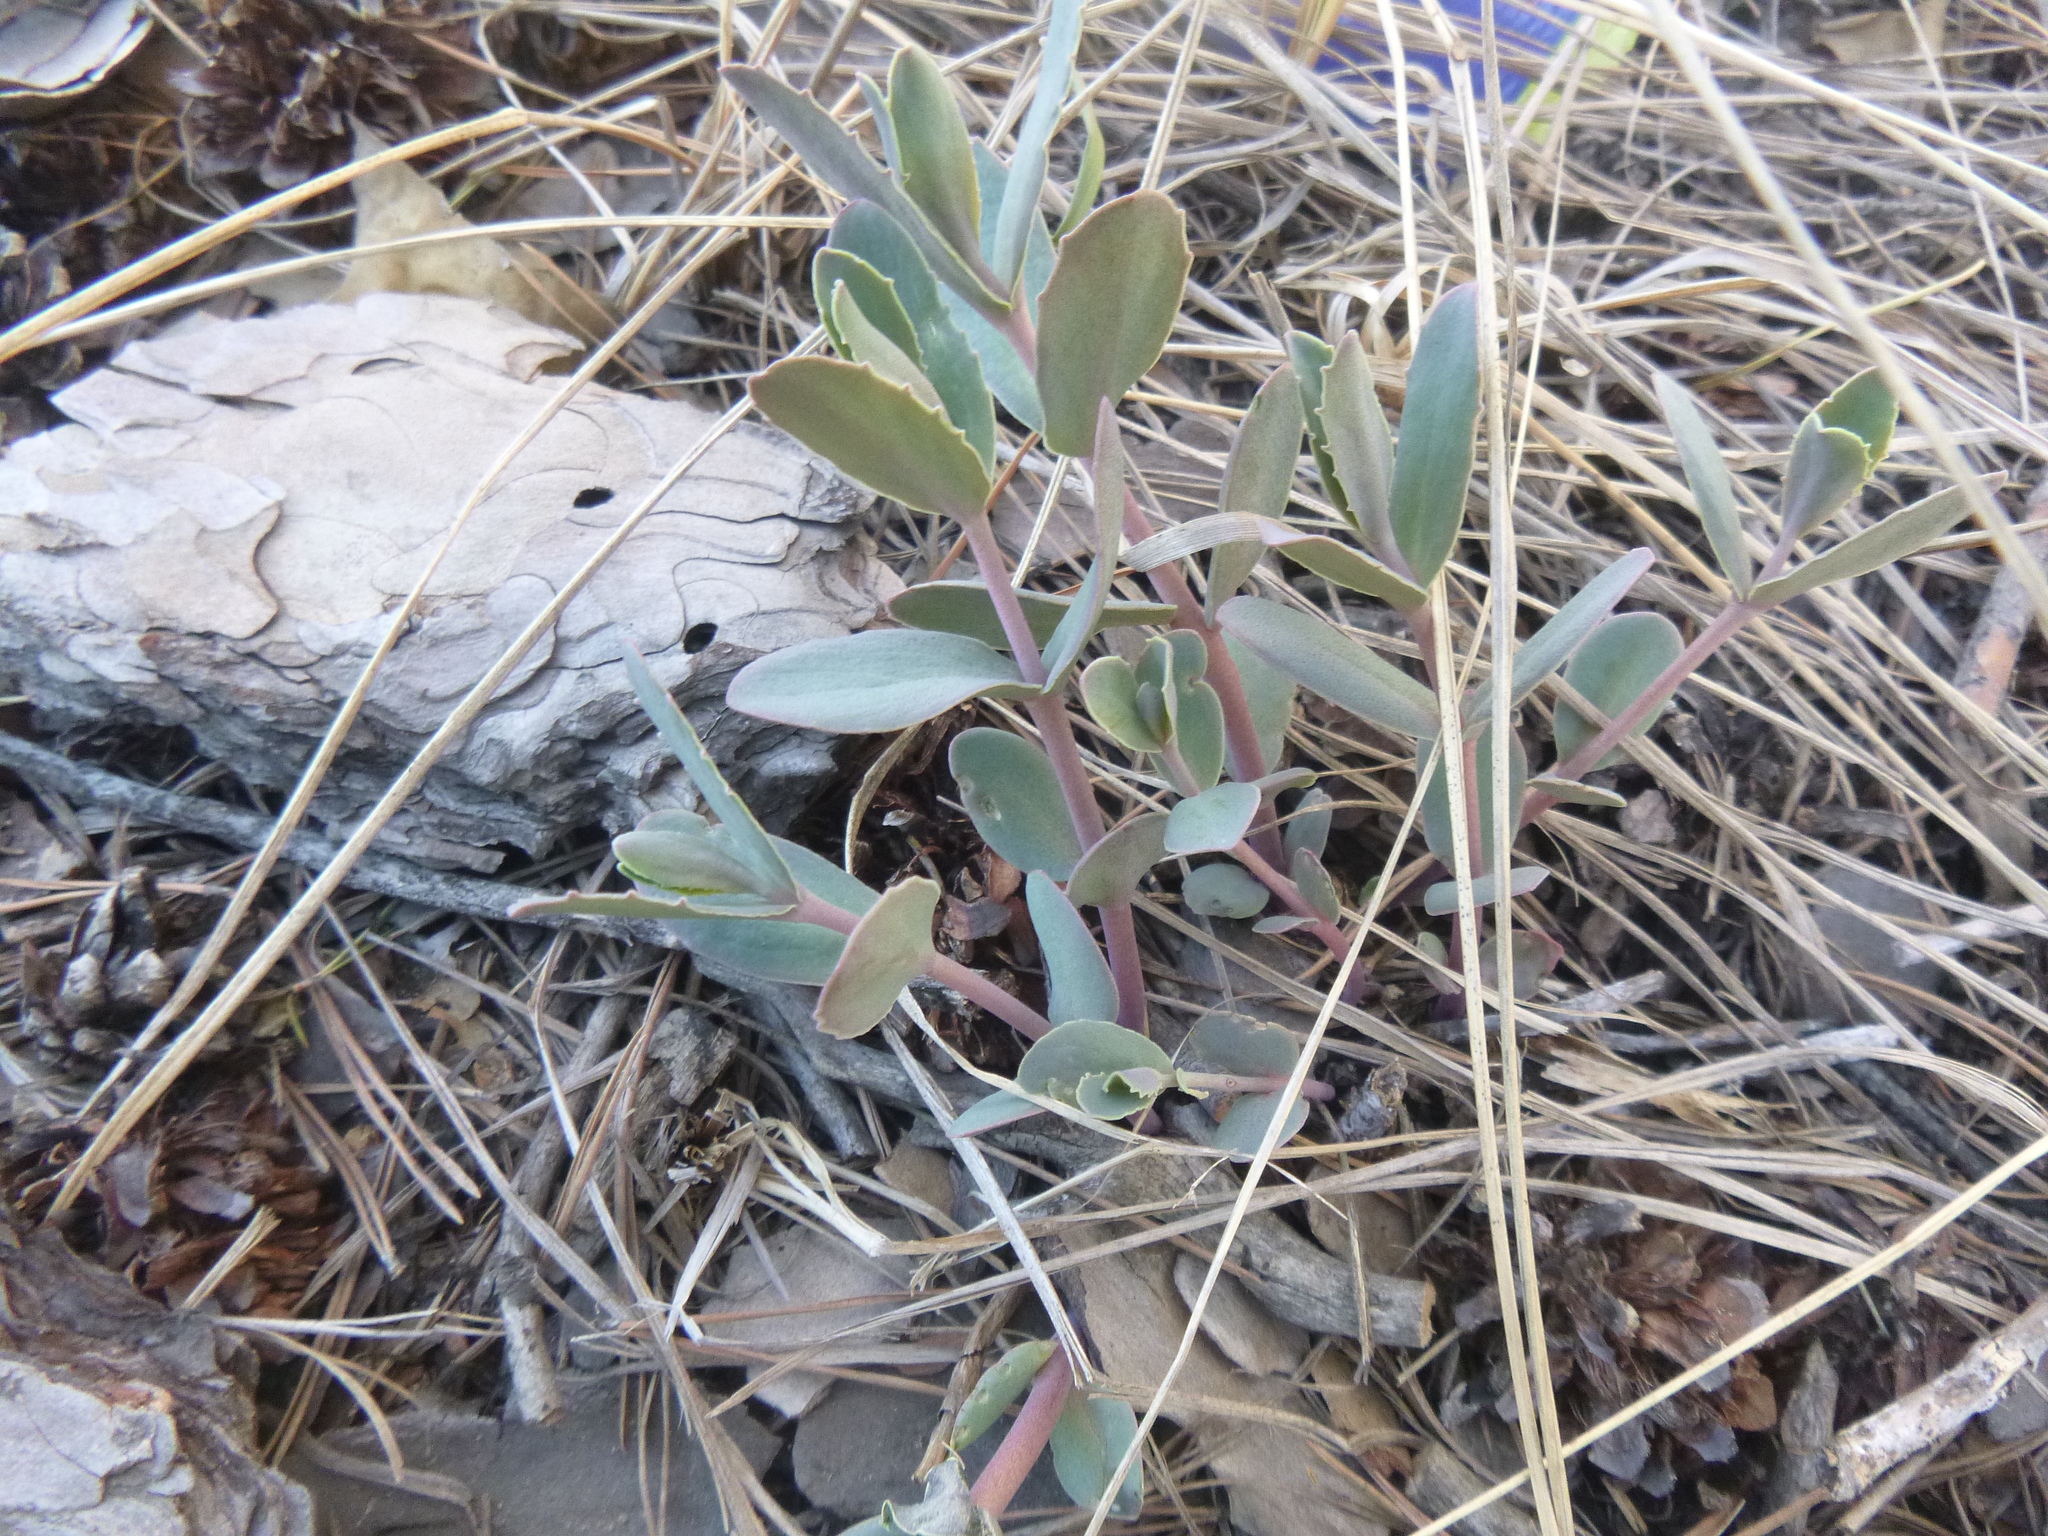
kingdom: Plantae
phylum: Tracheophyta
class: Magnoliopsida
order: Saxifragales
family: Crassulaceae
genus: Hylotelephium
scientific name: Hylotelephium maximum
